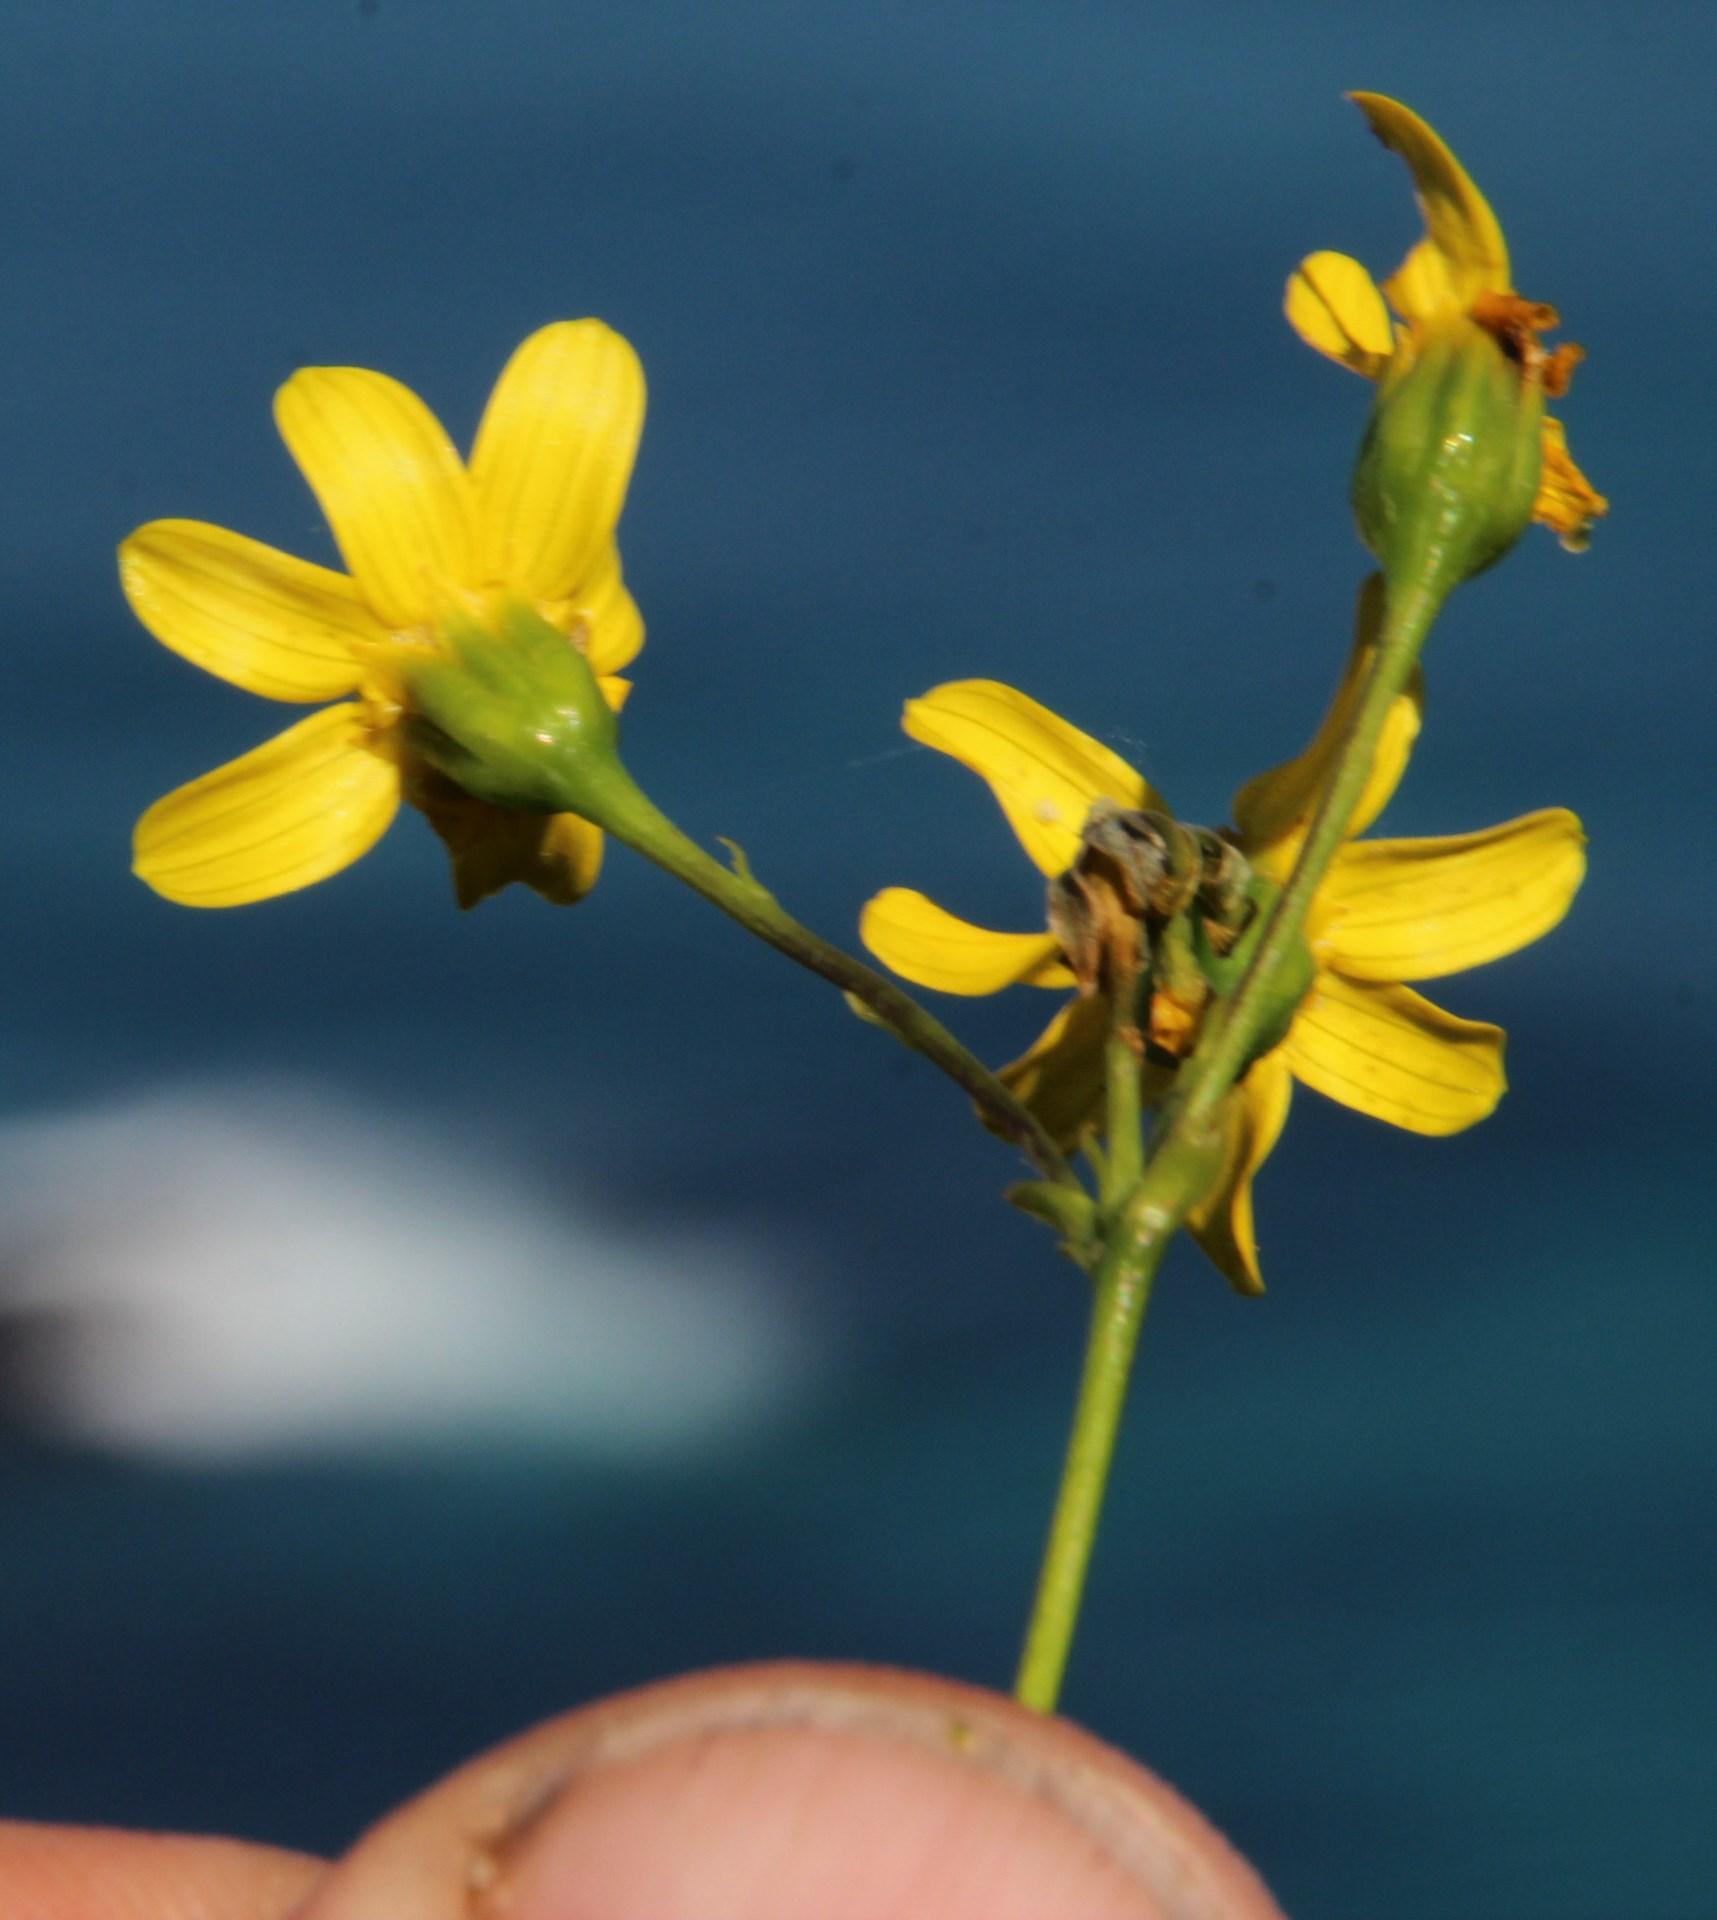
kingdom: Plantae
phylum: Tracheophyta
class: Magnoliopsida
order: Asterales
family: Asteraceae
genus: Othonna
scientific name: Othonna quinquedentata
